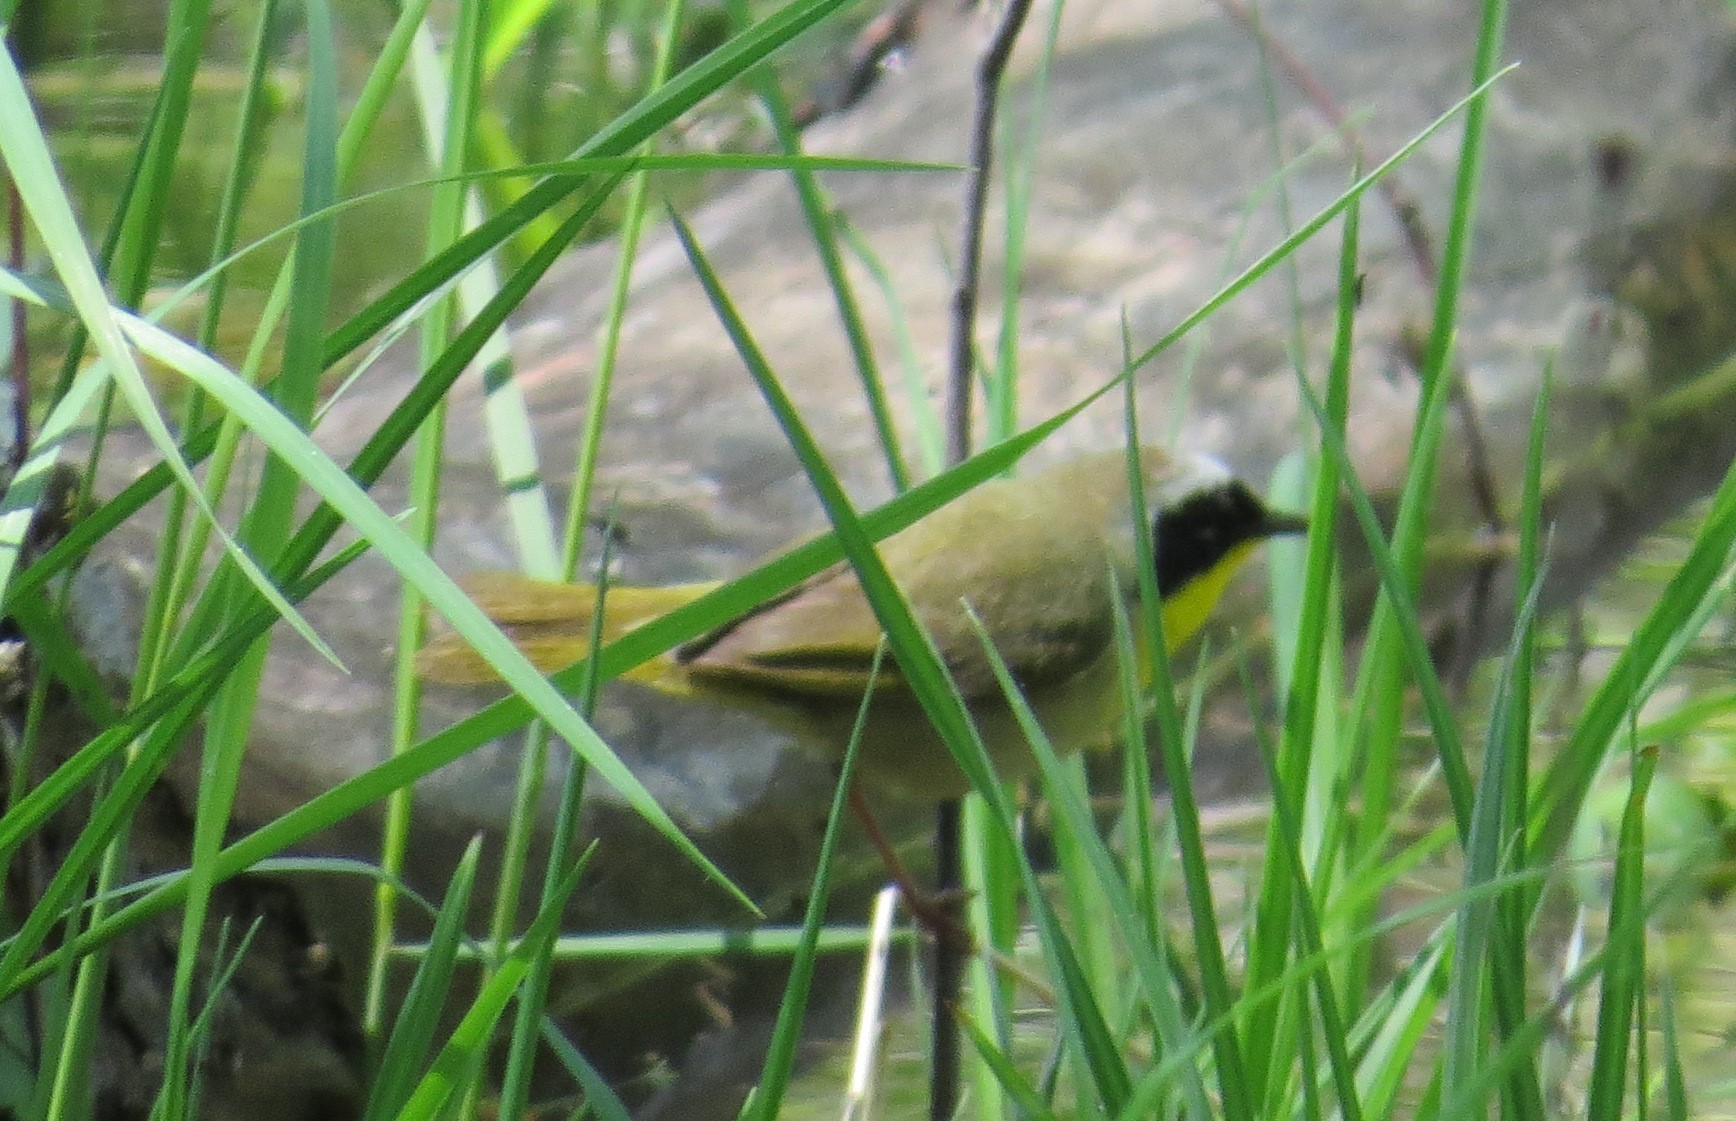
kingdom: Animalia
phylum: Chordata
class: Aves
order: Passeriformes
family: Parulidae
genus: Geothlypis
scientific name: Geothlypis trichas
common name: Common yellowthroat
